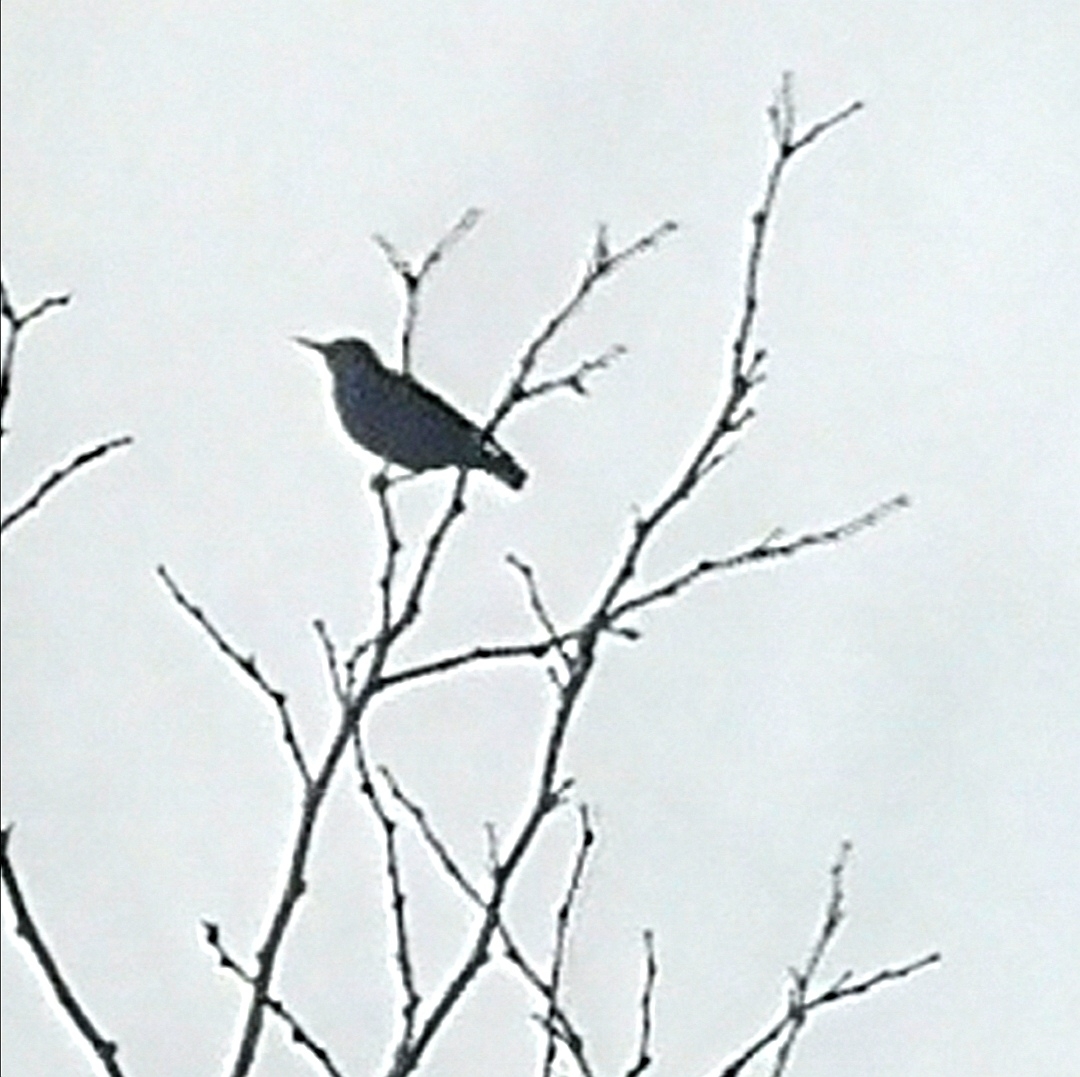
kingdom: Animalia
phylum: Chordata
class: Aves
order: Passeriformes
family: Sturnidae
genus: Sturnus
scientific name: Sturnus vulgaris
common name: Common starling
